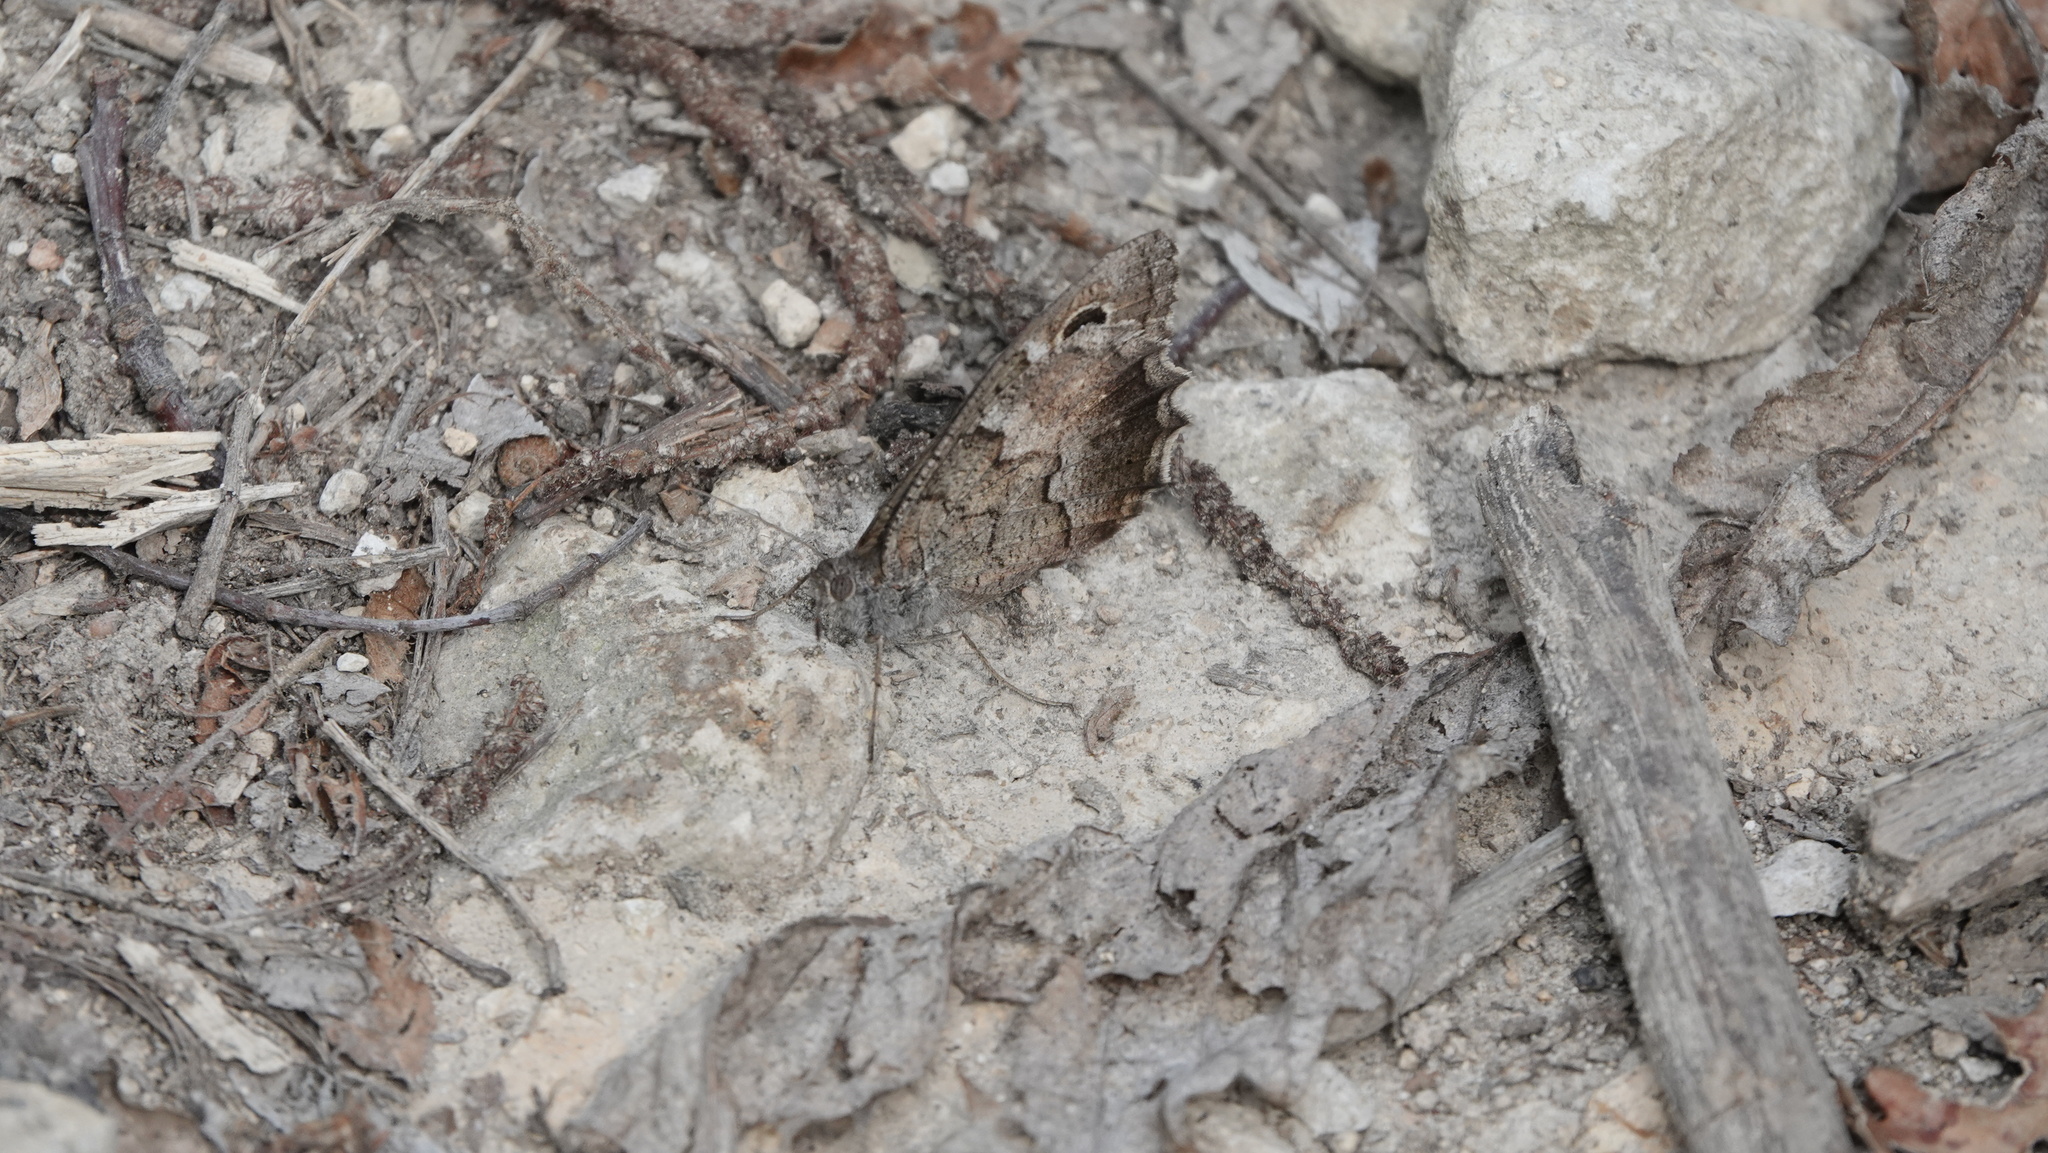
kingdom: Animalia
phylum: Arthropoda
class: Insecta
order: Lepidoptera
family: Nymphalidae
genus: Hipparchia
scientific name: Hipparchia statilinus
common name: Tree grayling
